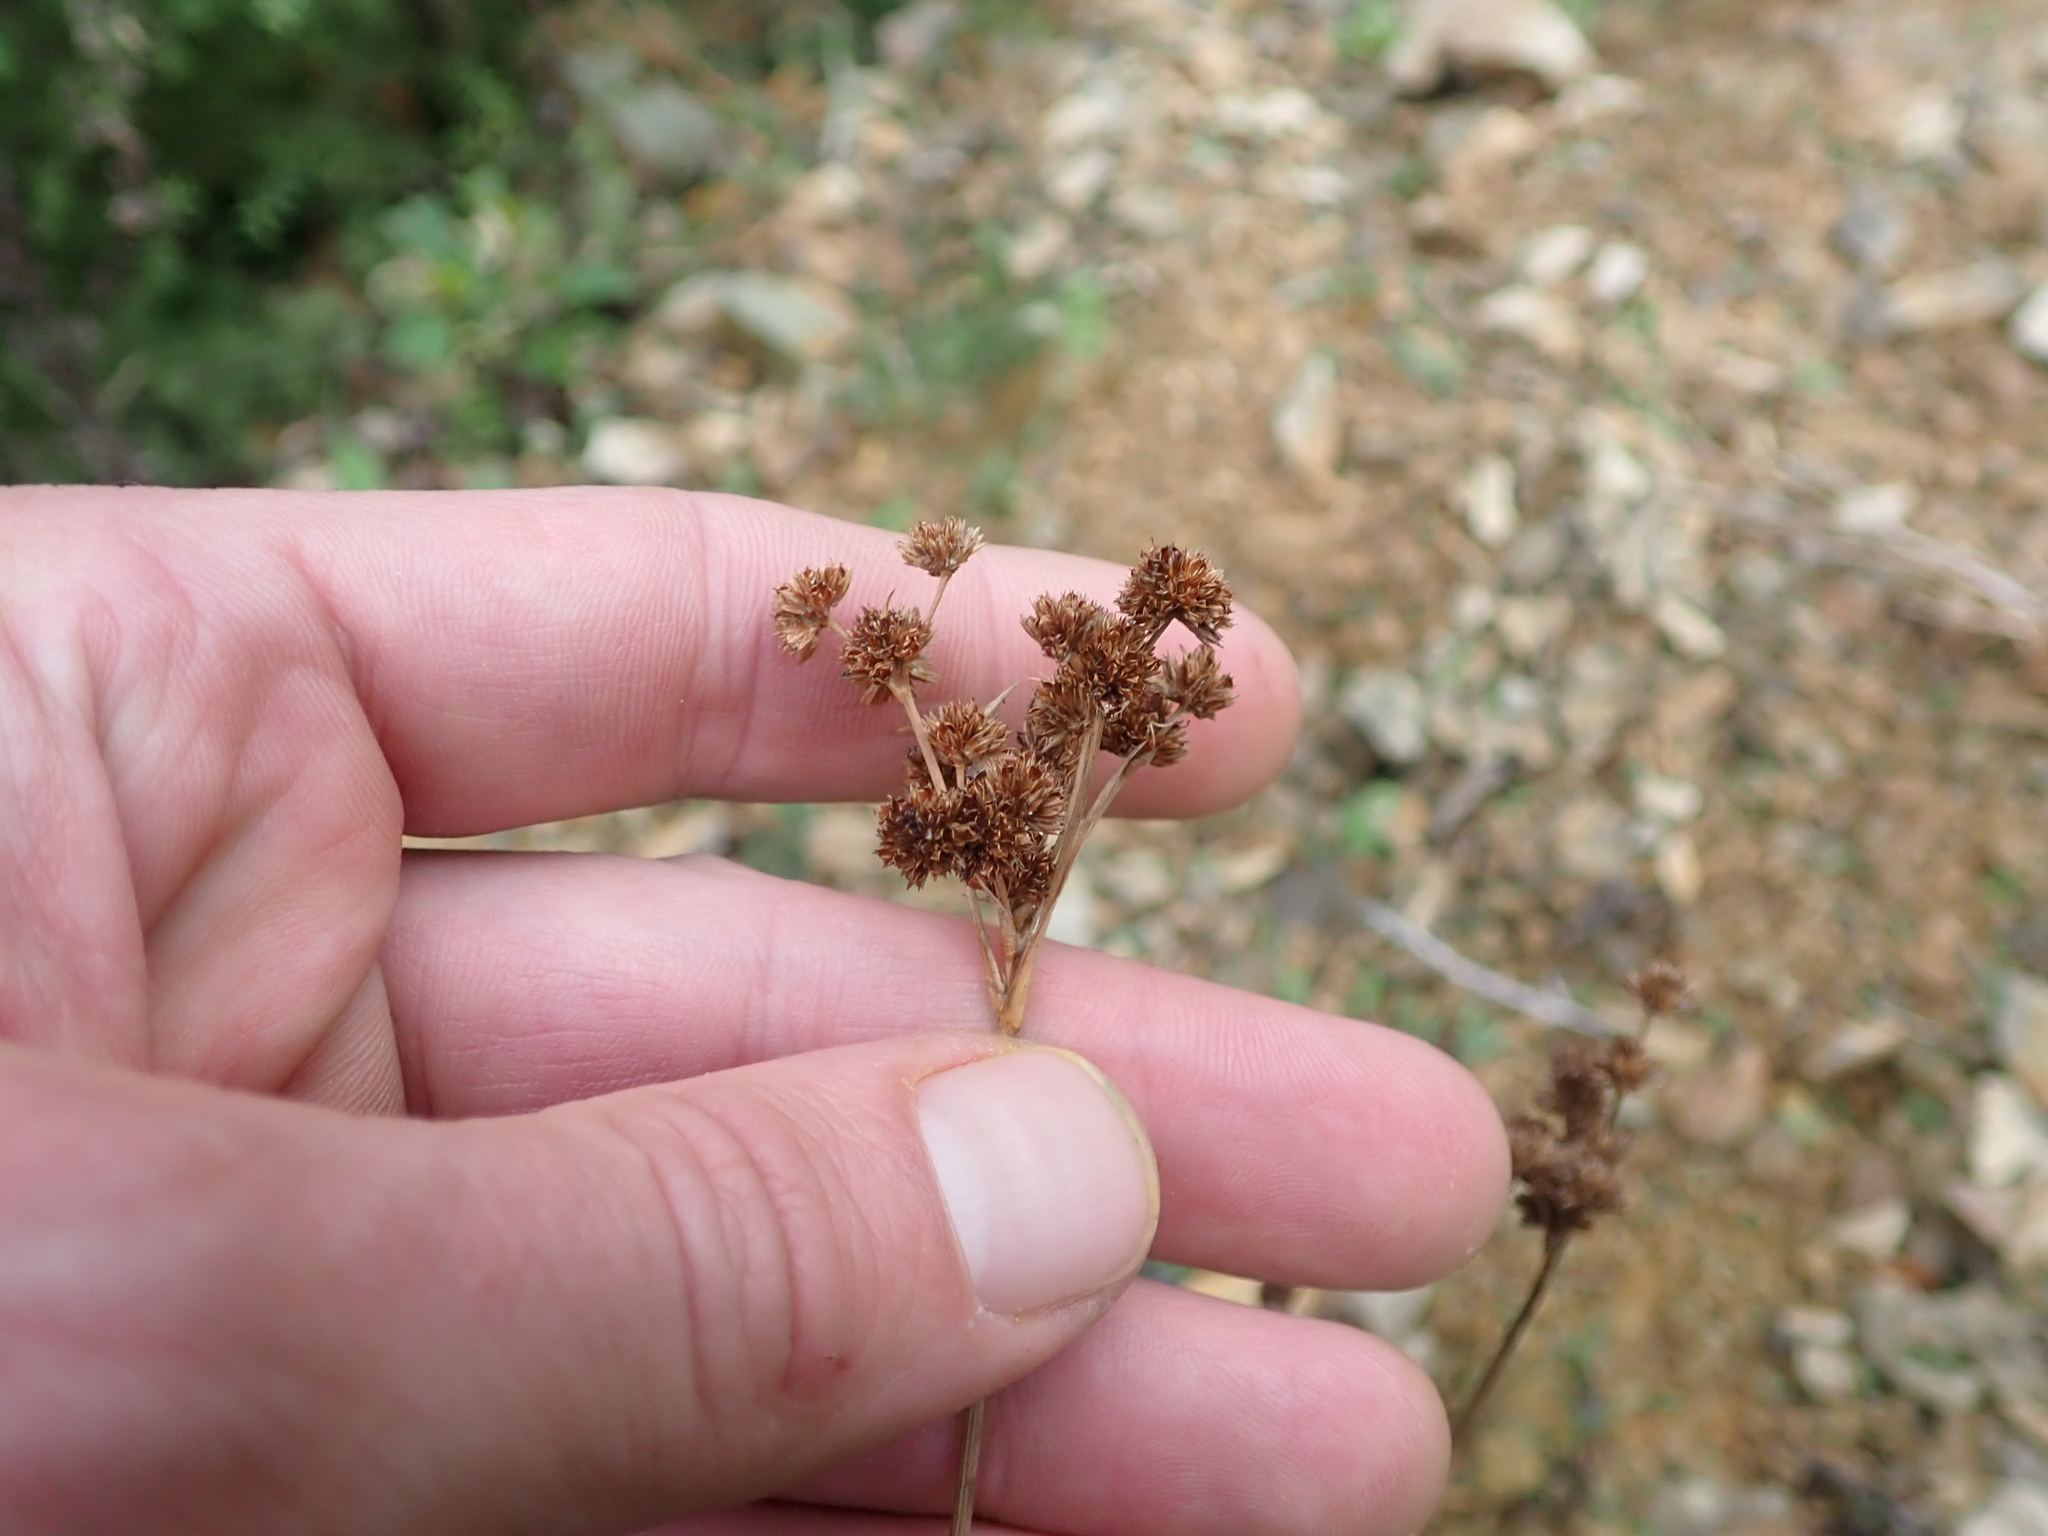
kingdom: Plantae
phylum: Tracheophyta
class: Liliopsida
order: Poales
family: Juncaceae
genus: Juncus
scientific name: Juncus planifolius
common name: Broadleaf rush
